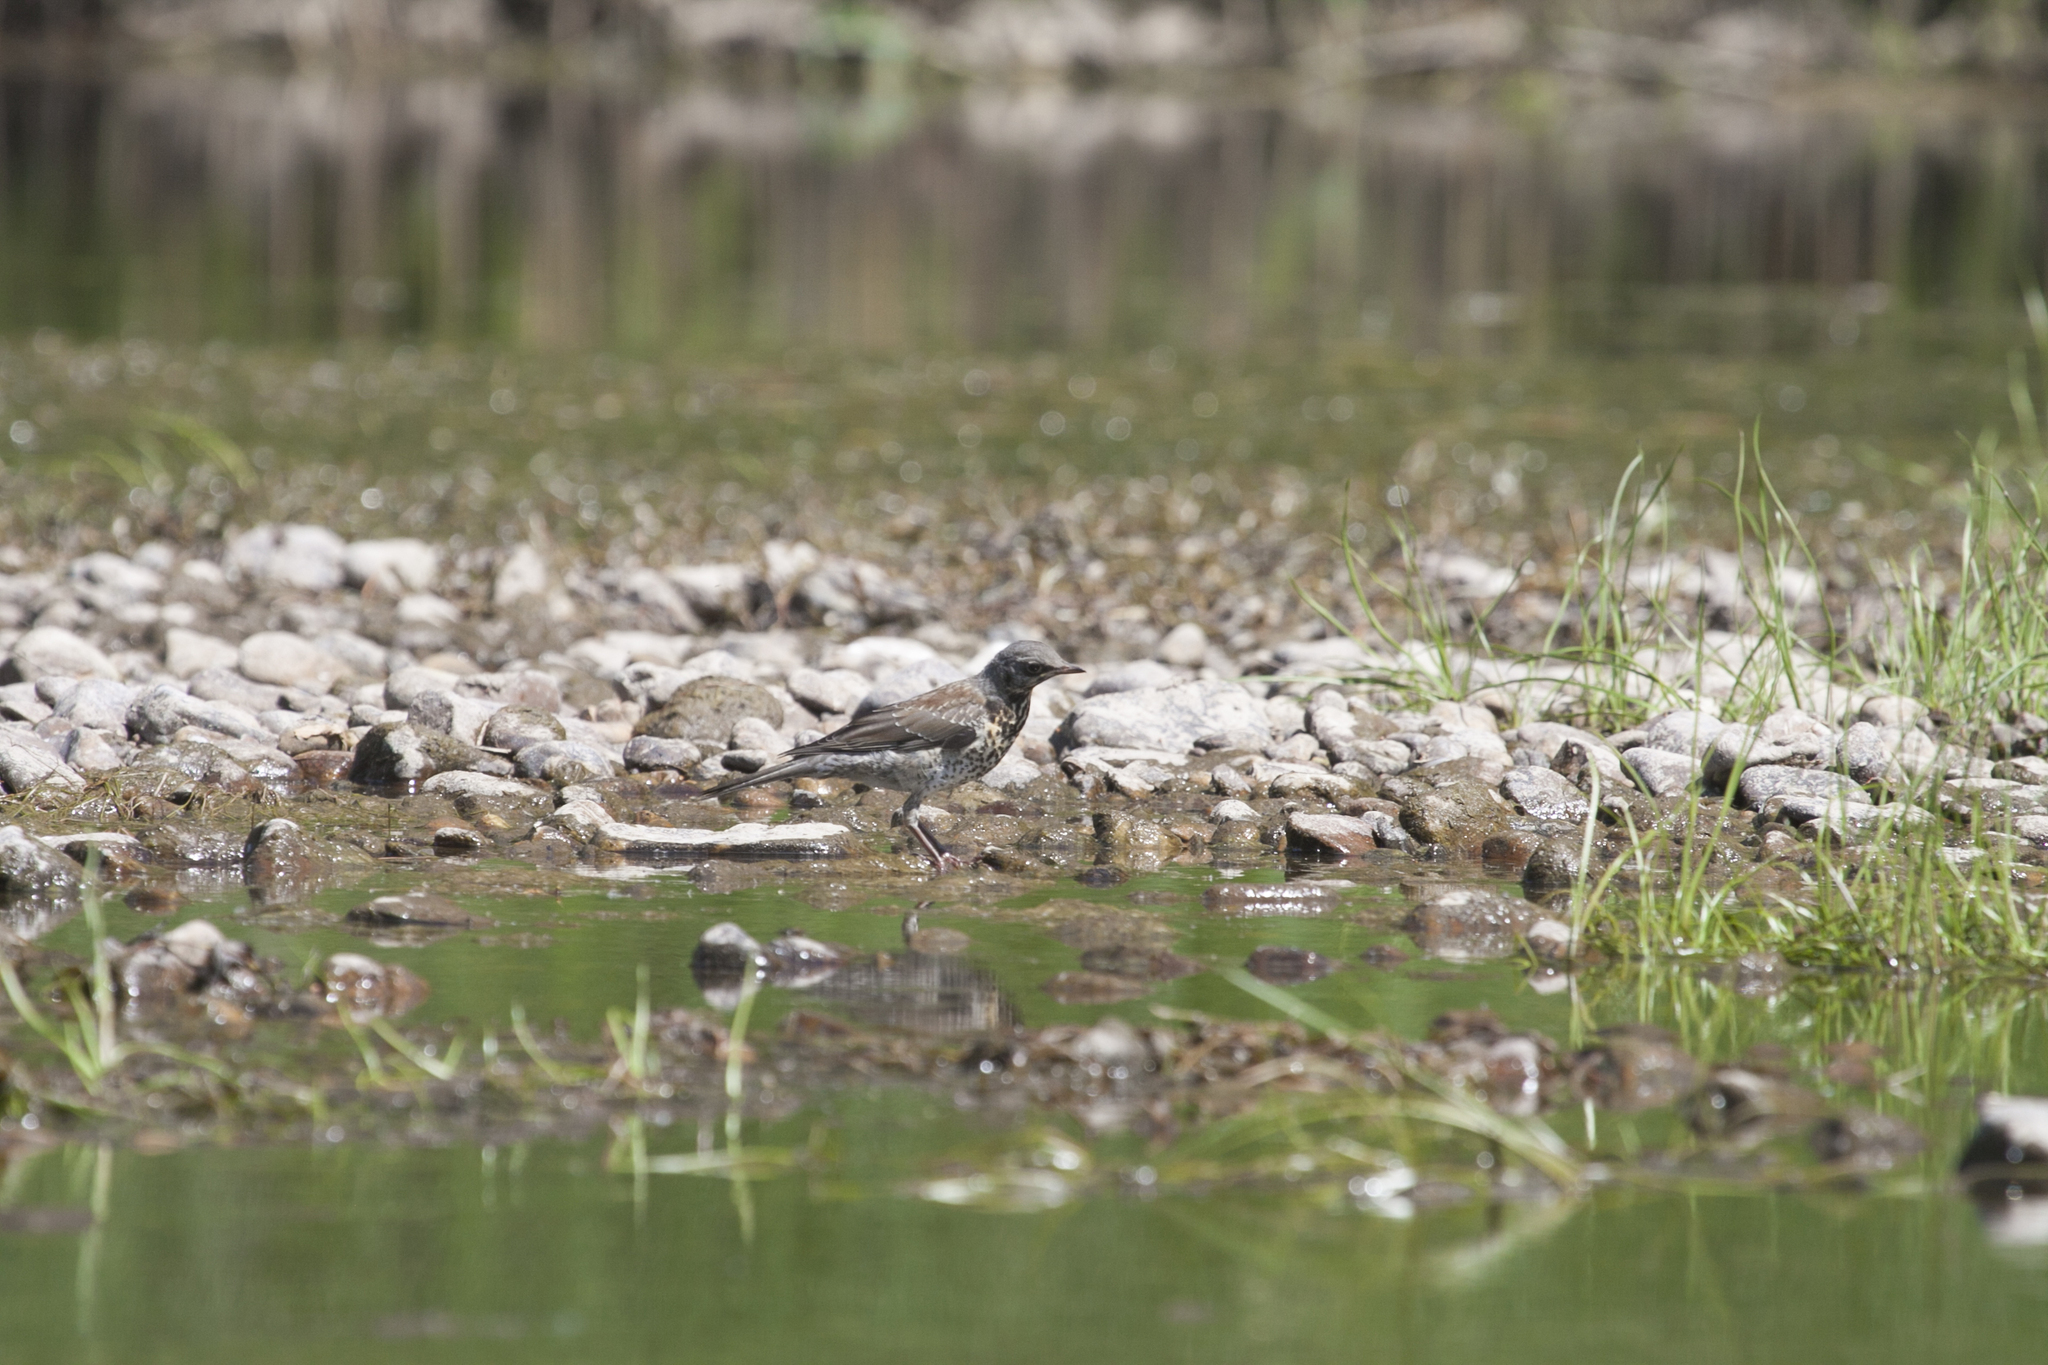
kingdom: Animalia
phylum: Chordata
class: Aves
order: Passeriformes
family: Turdidae
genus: Turdus
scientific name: Turdus pilaris
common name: Fieldfare
